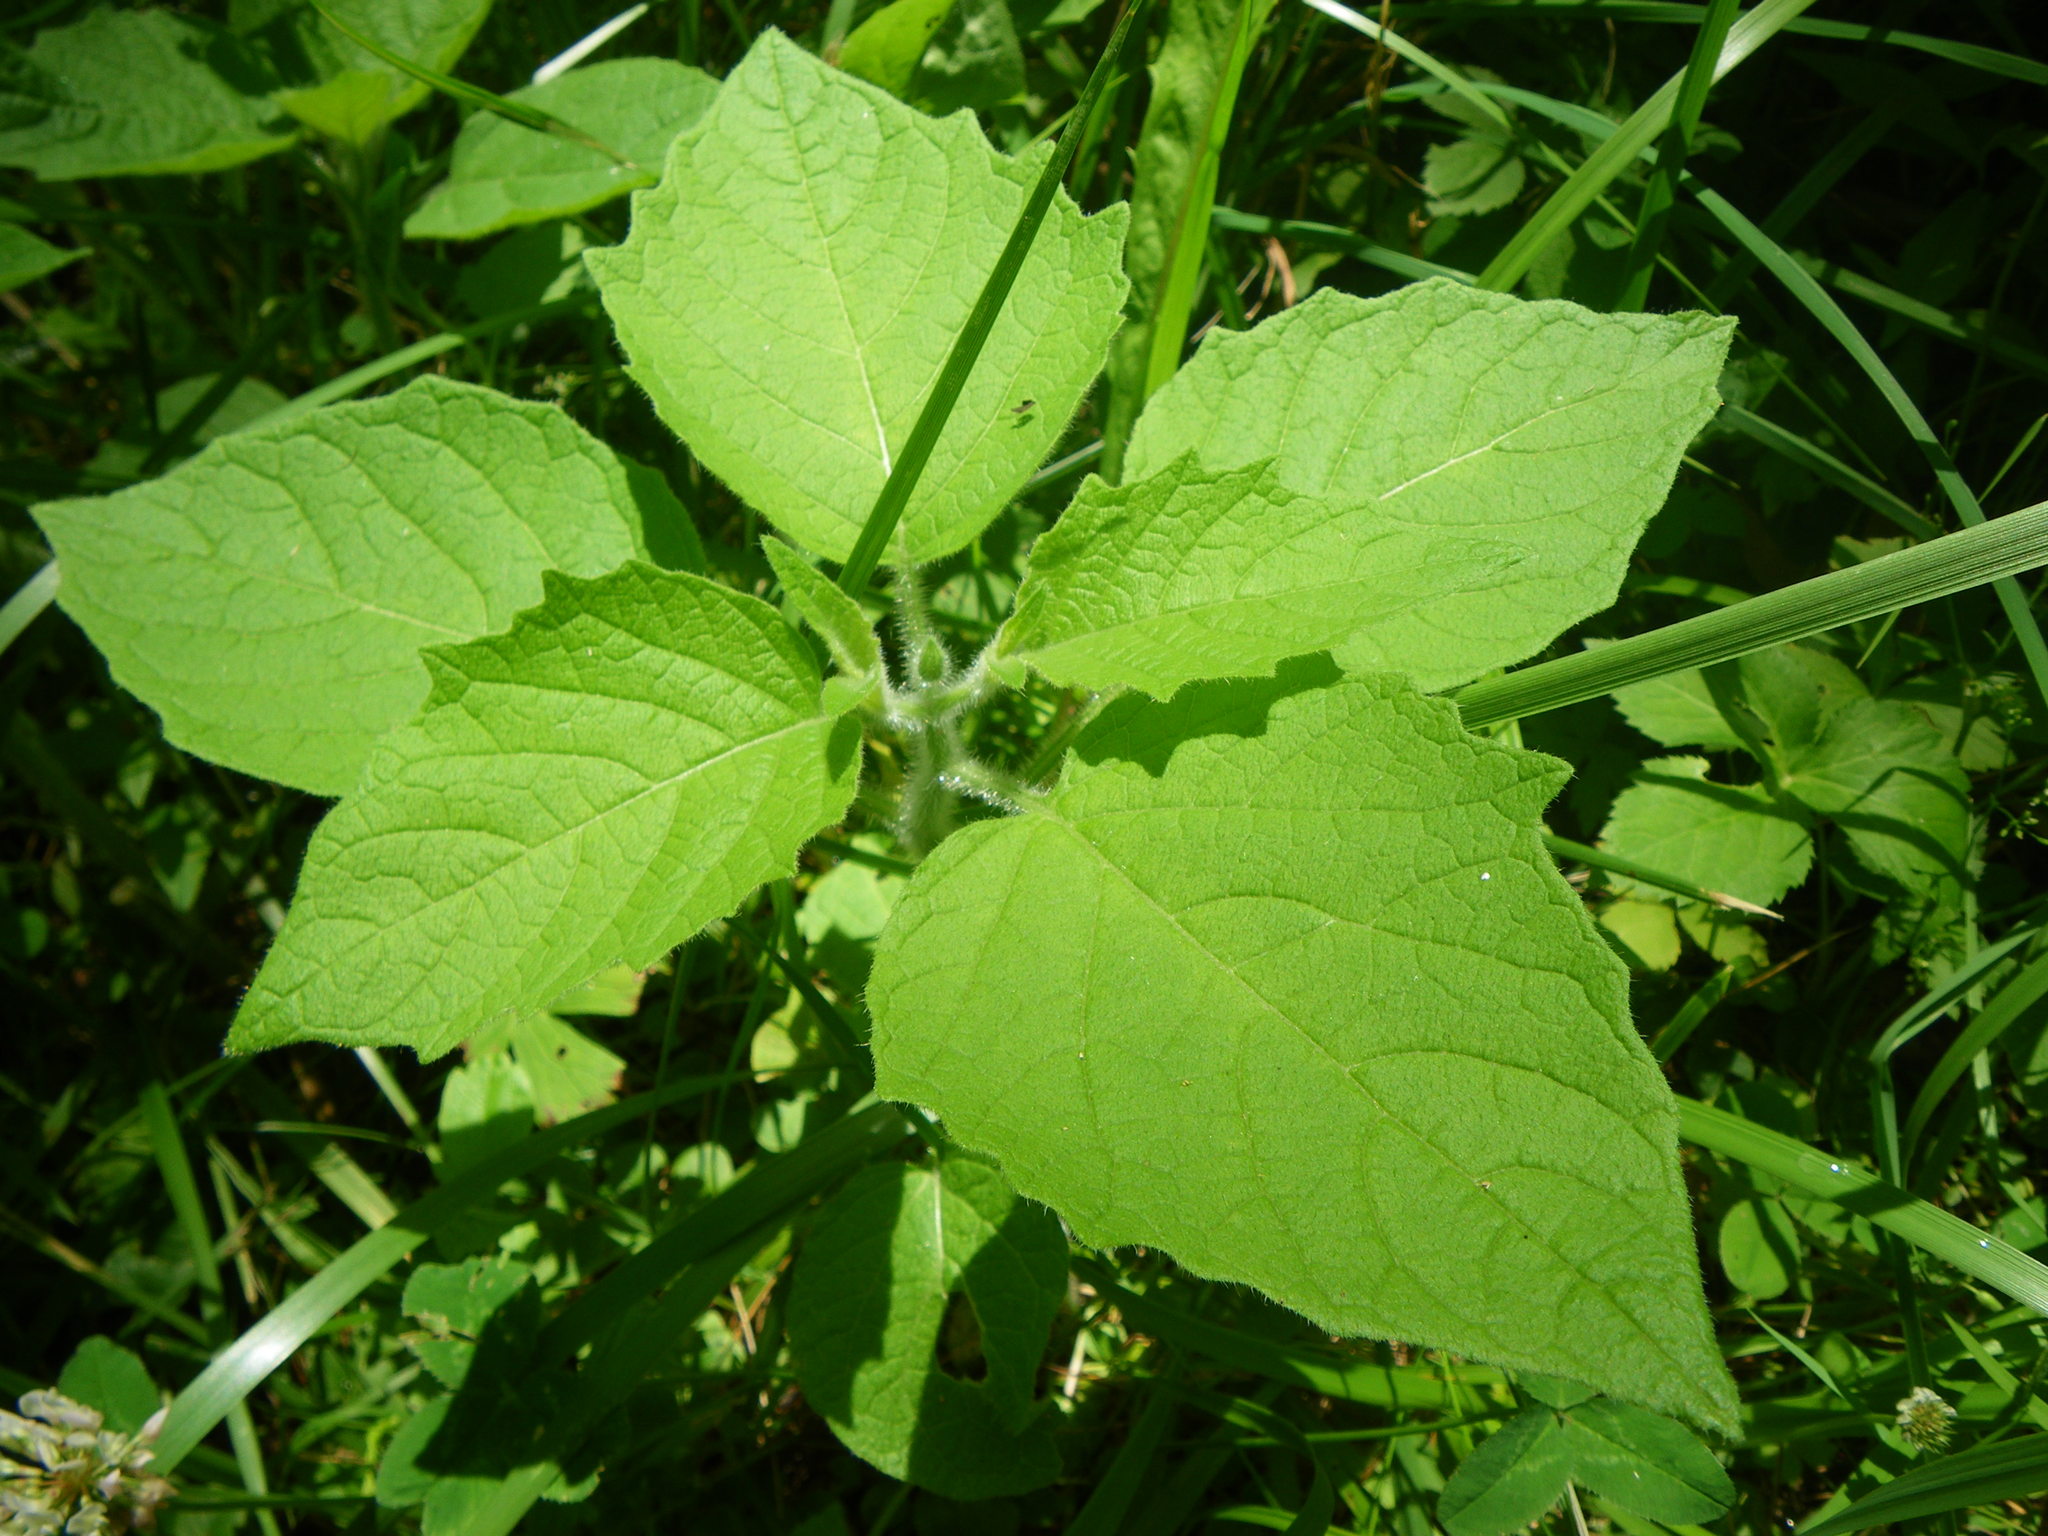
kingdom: Plantae
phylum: Tracheophyta
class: Magnoliopsida
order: Solanales
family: Solanaceae
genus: Physalis
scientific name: Physalis heterophylla
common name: Clammy ground-cherry
